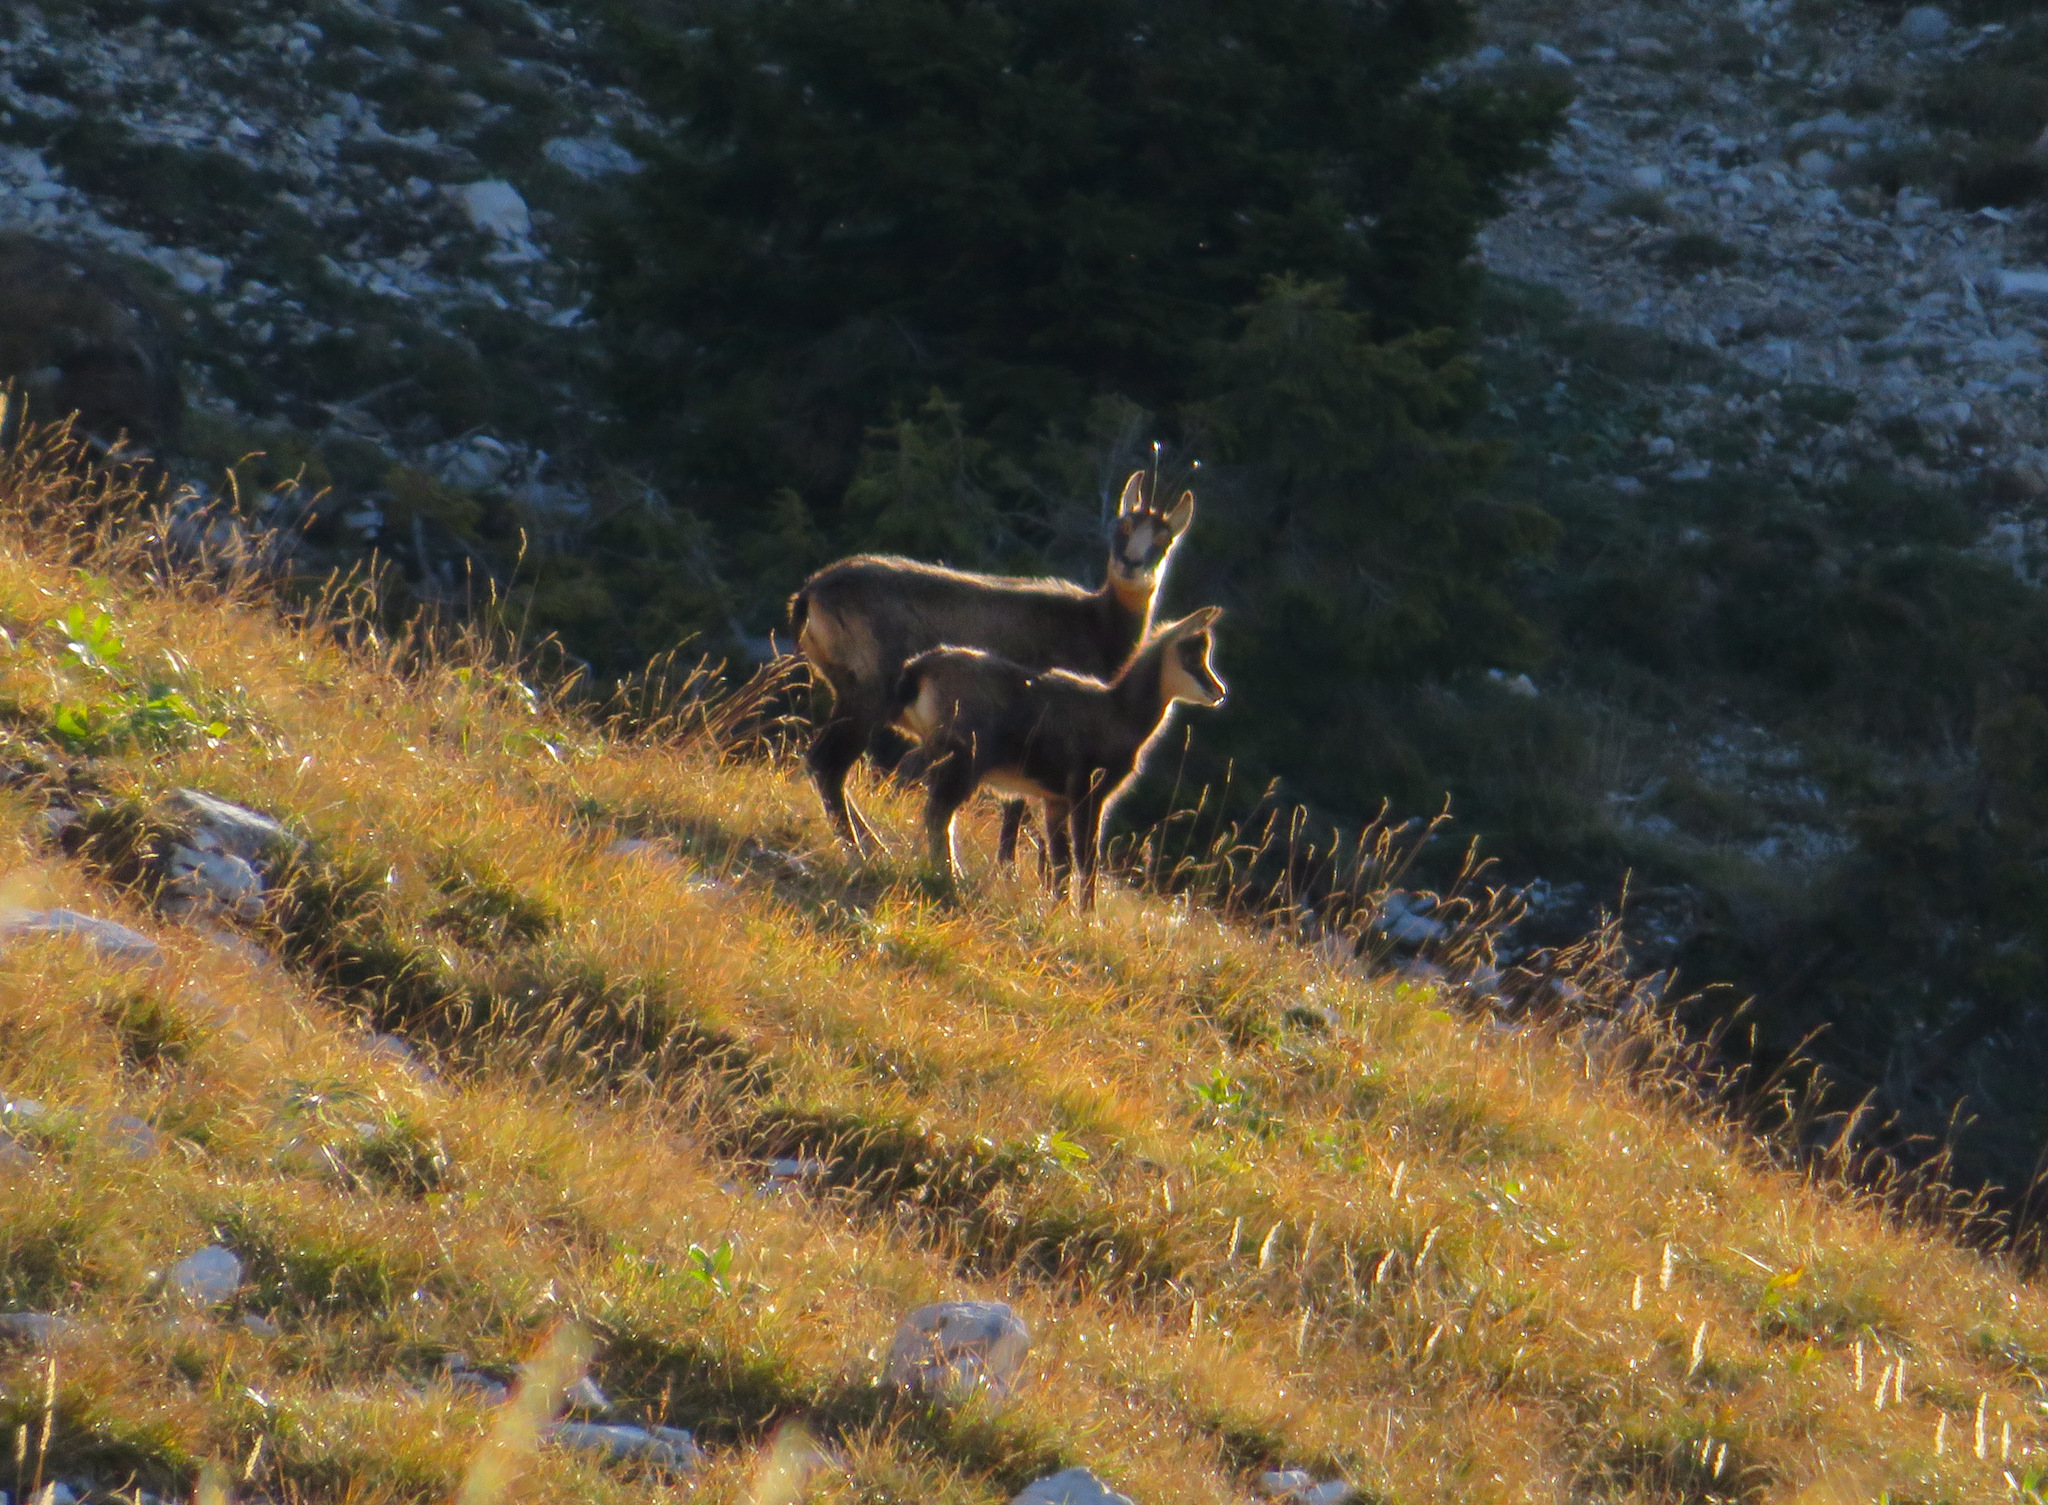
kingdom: Animalia
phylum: Chordata
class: Mammalia
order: Artiodactyla
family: Bovidae
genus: Rupicapra
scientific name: Rupicapra rupicapra
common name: Chamois
